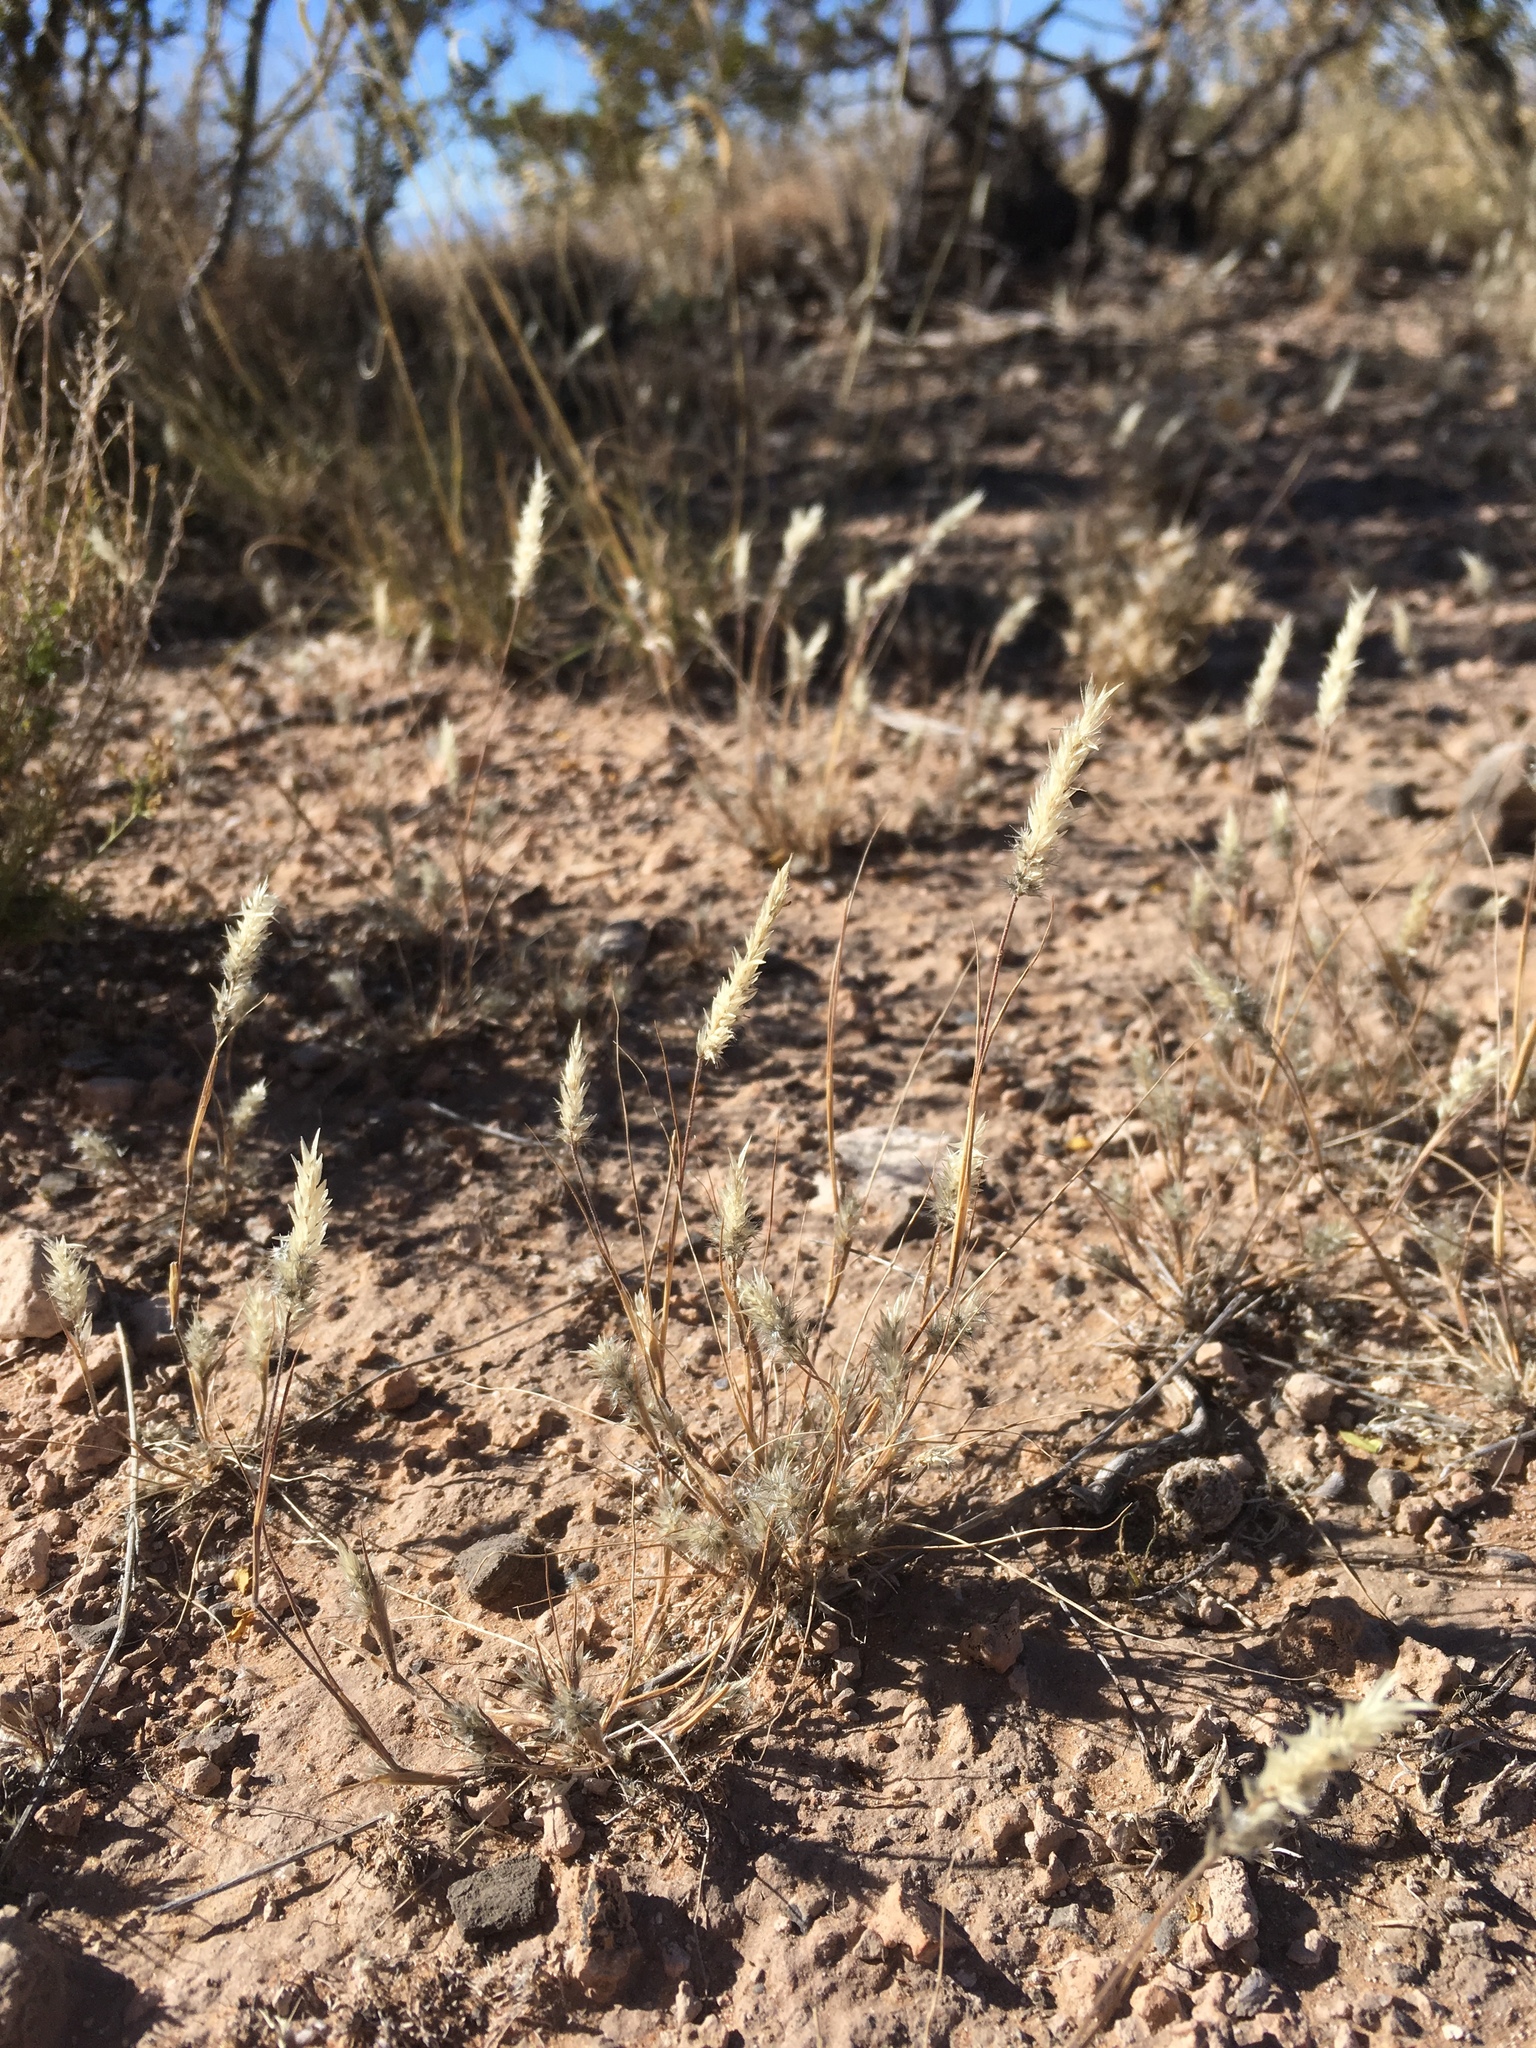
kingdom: Plantae
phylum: Tracheophyta
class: Liliopsida
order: Poales
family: Poaceae
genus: Enneapogon
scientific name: Enneapogon desvauxii
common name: Feather pappus grass
